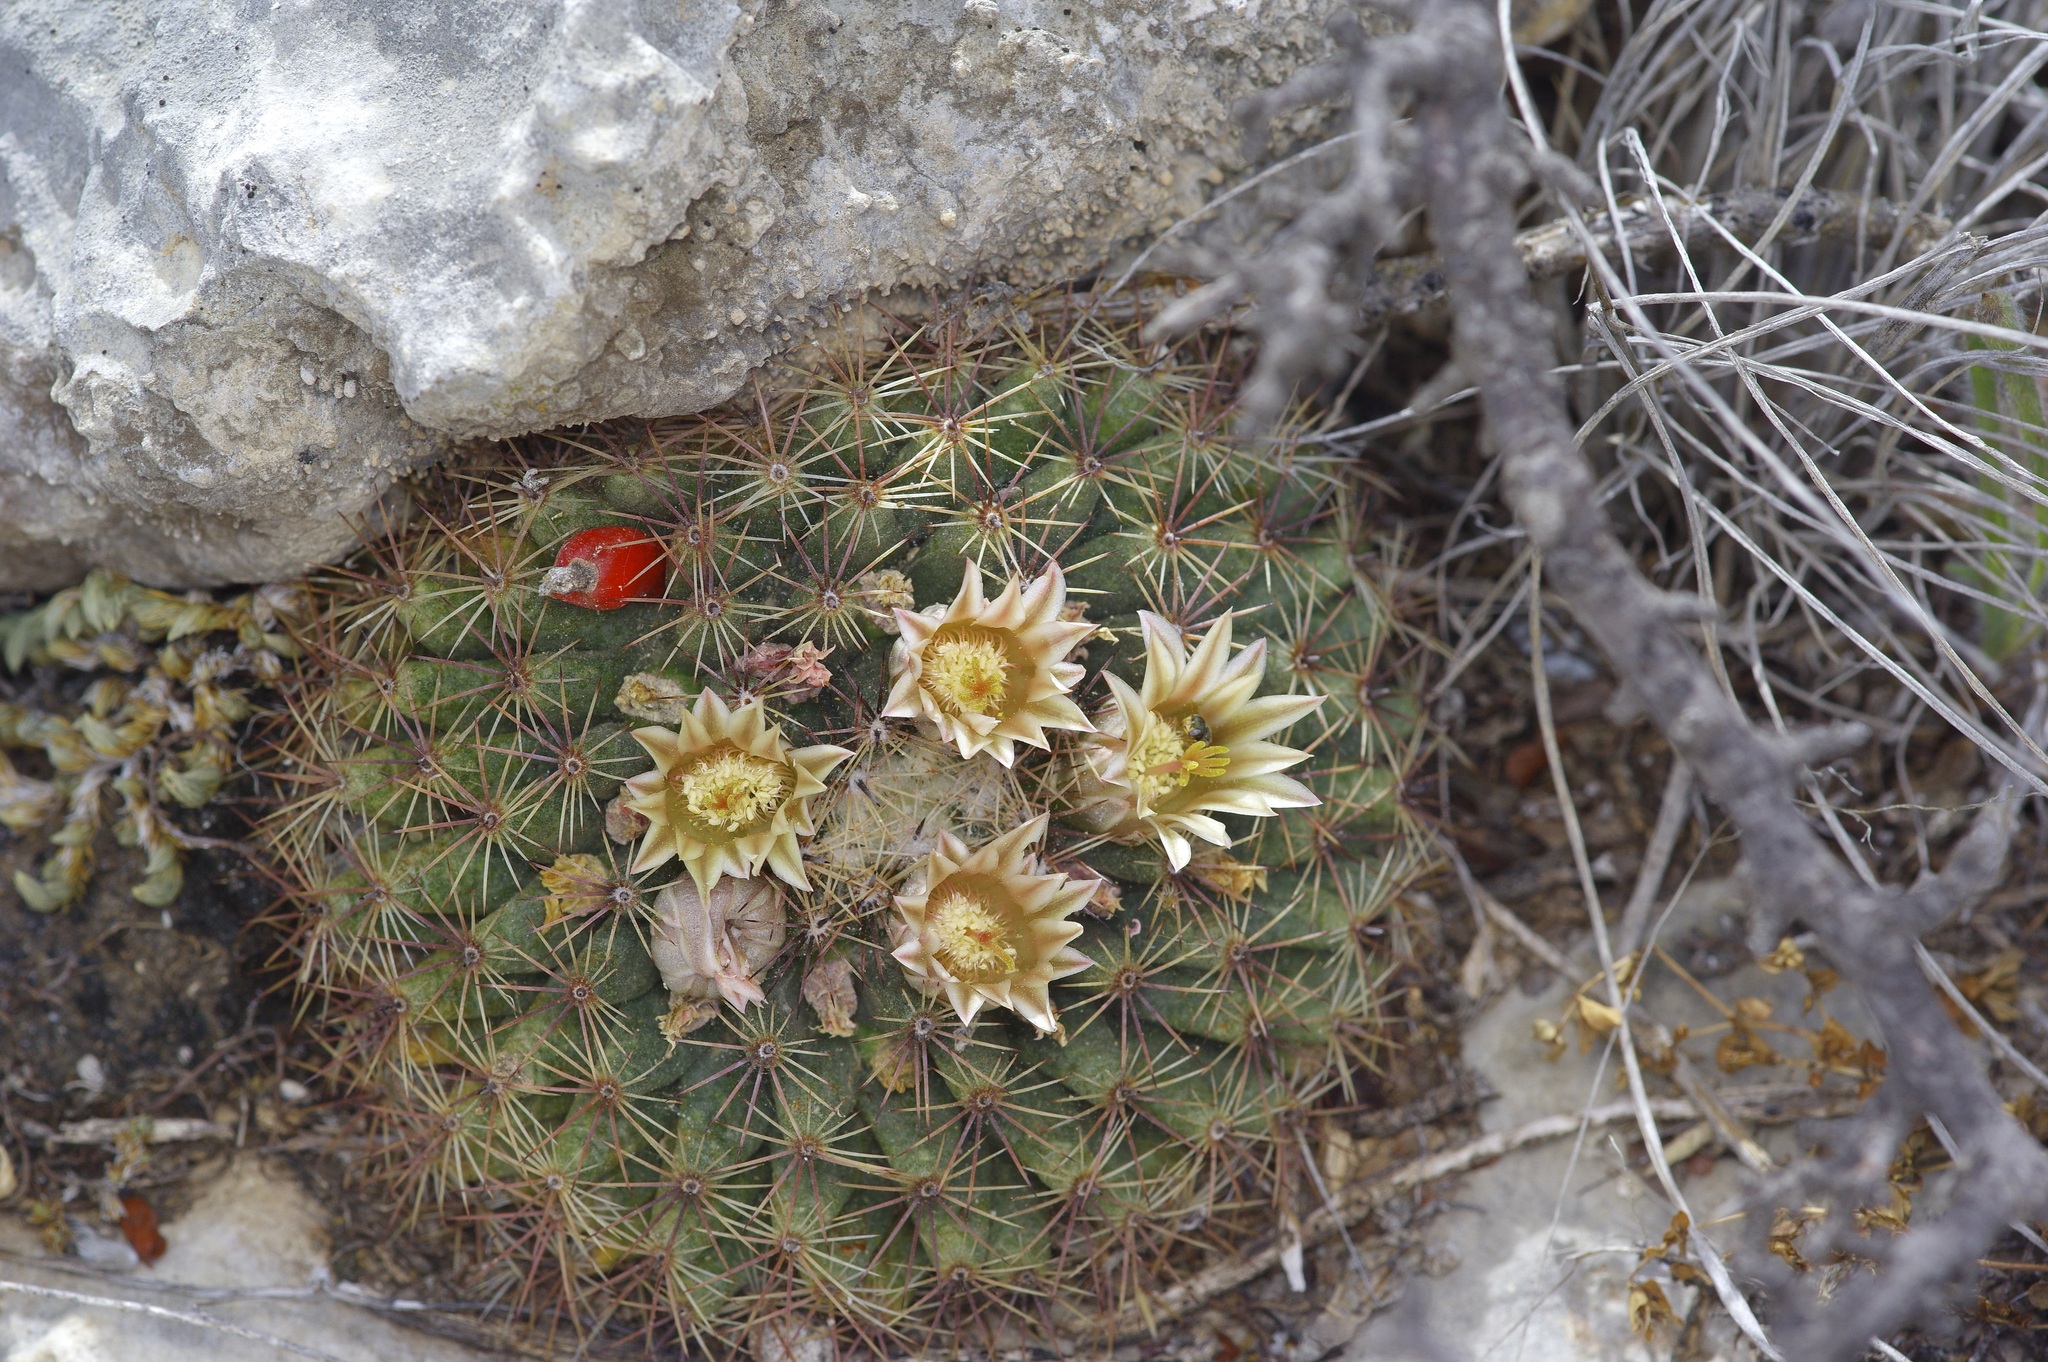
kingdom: Plantae
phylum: Tracheophyta
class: Magnoliopsida
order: Caryophyllales
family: Cactaceae
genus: Mammillaria
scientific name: Mammillaria heyderi
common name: Little nipple cactus
